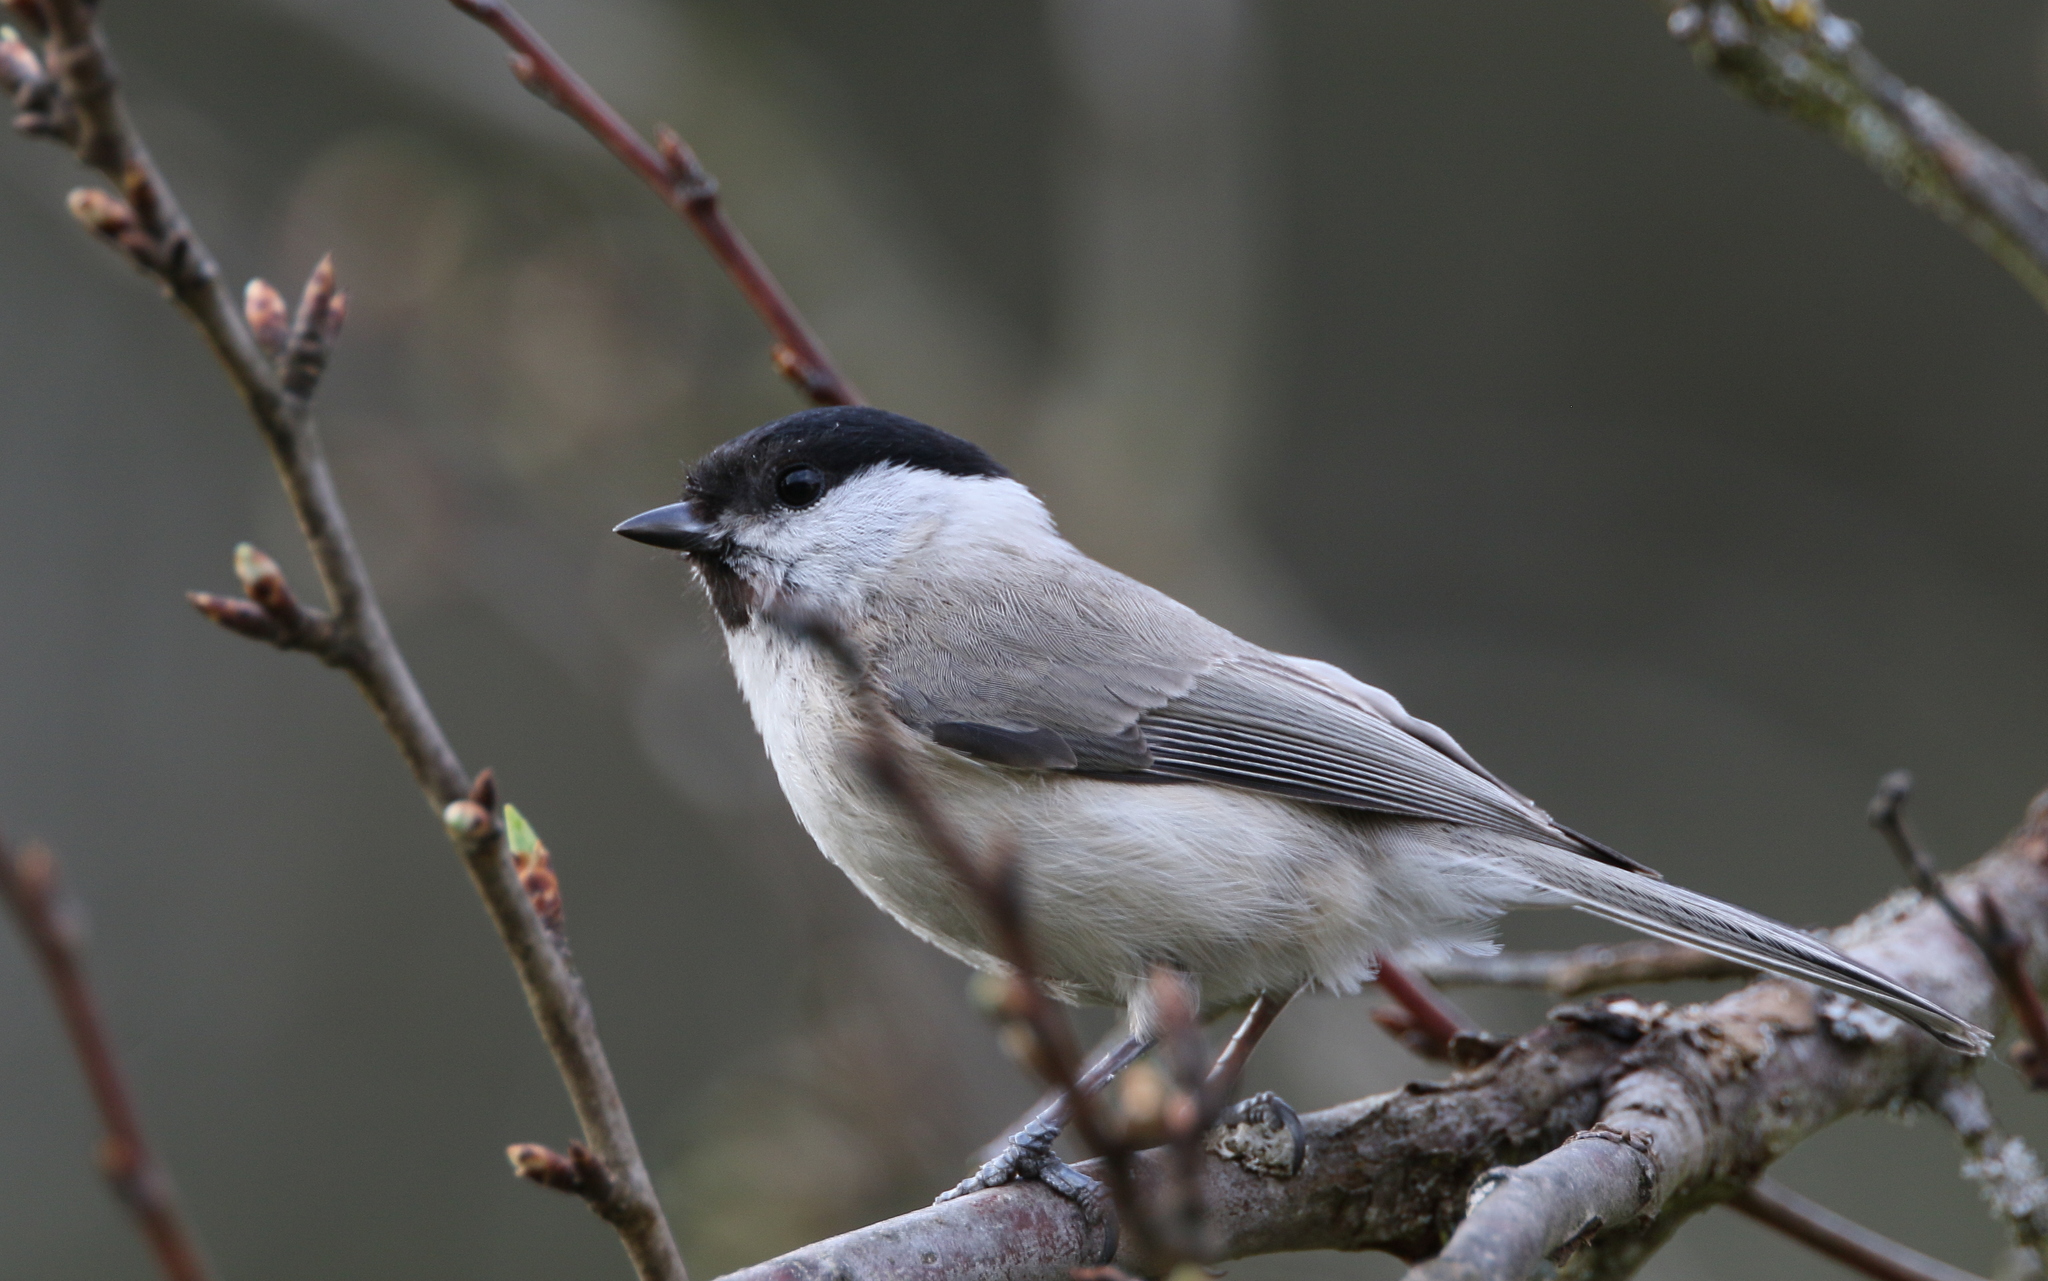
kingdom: Animalia
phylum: Chordata
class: Aves
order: Passeriformes
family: Paridae
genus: Poecile
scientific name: Poecile palustris
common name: Marsh tit
